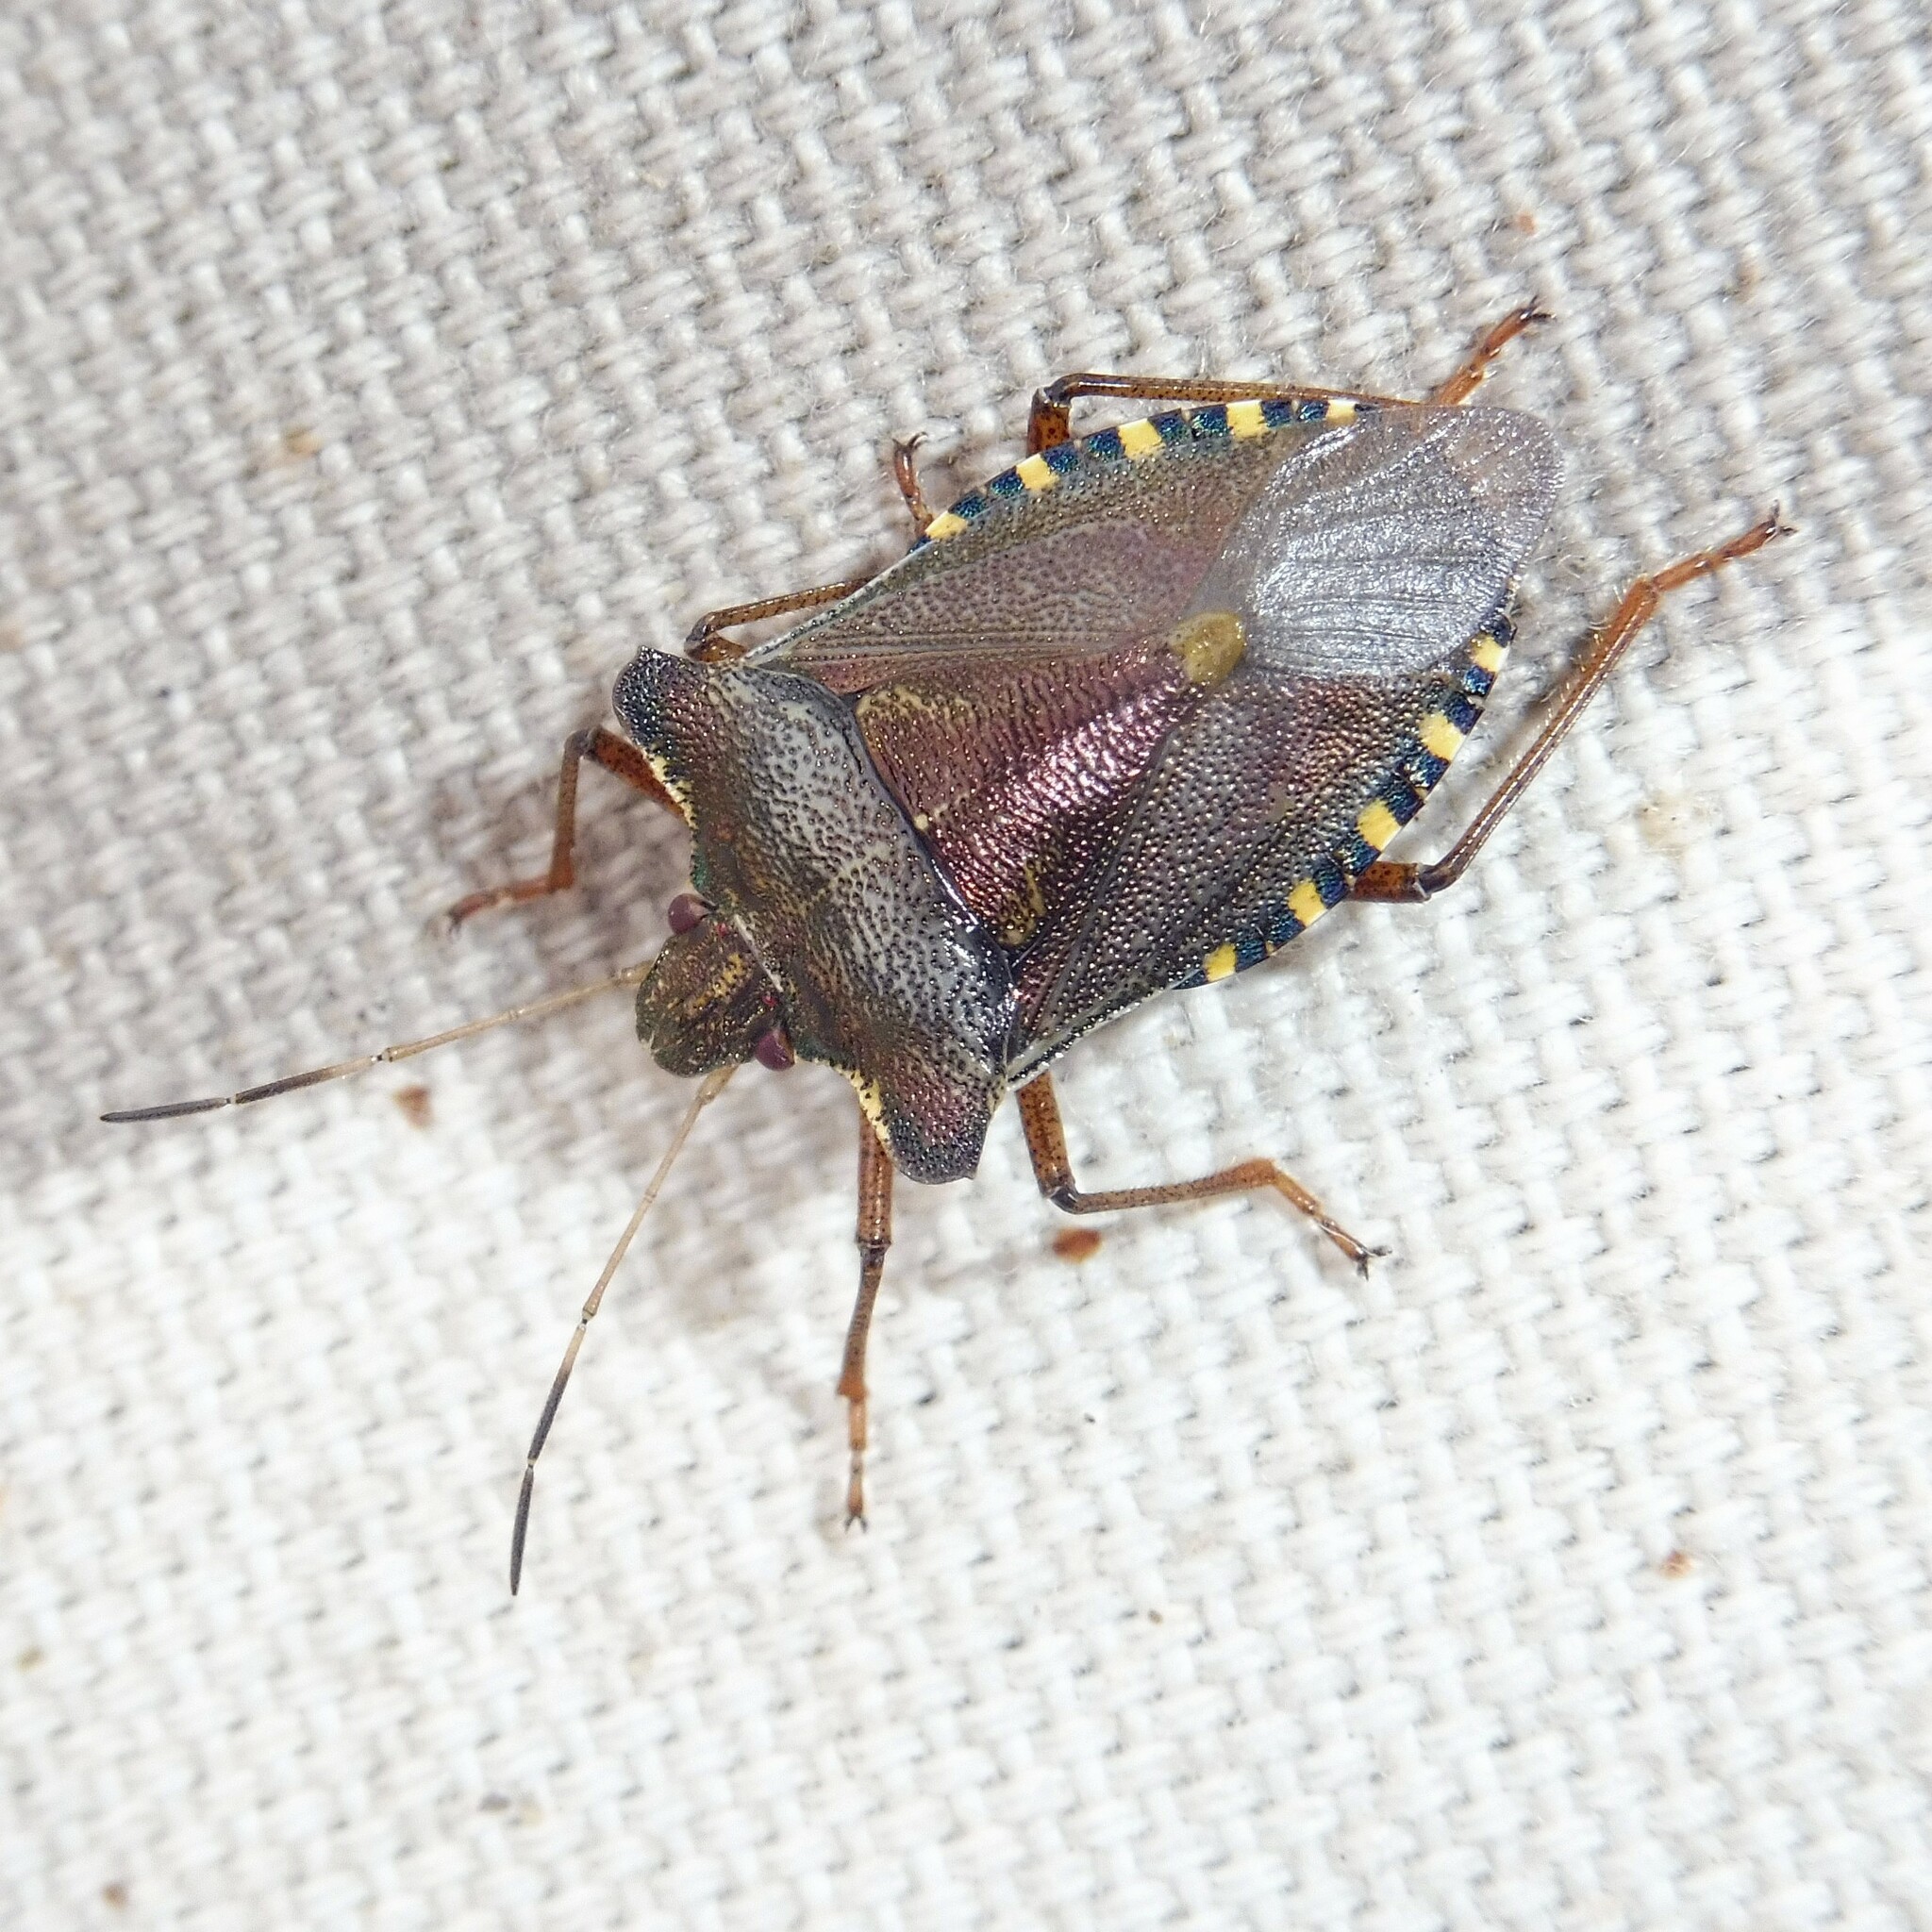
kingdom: Animalia
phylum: Arthropoda
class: Insecta
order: Hemiptera
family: Pentatomidae
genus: Pentatoma
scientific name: Pentatoma rufipes
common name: Forest bug
